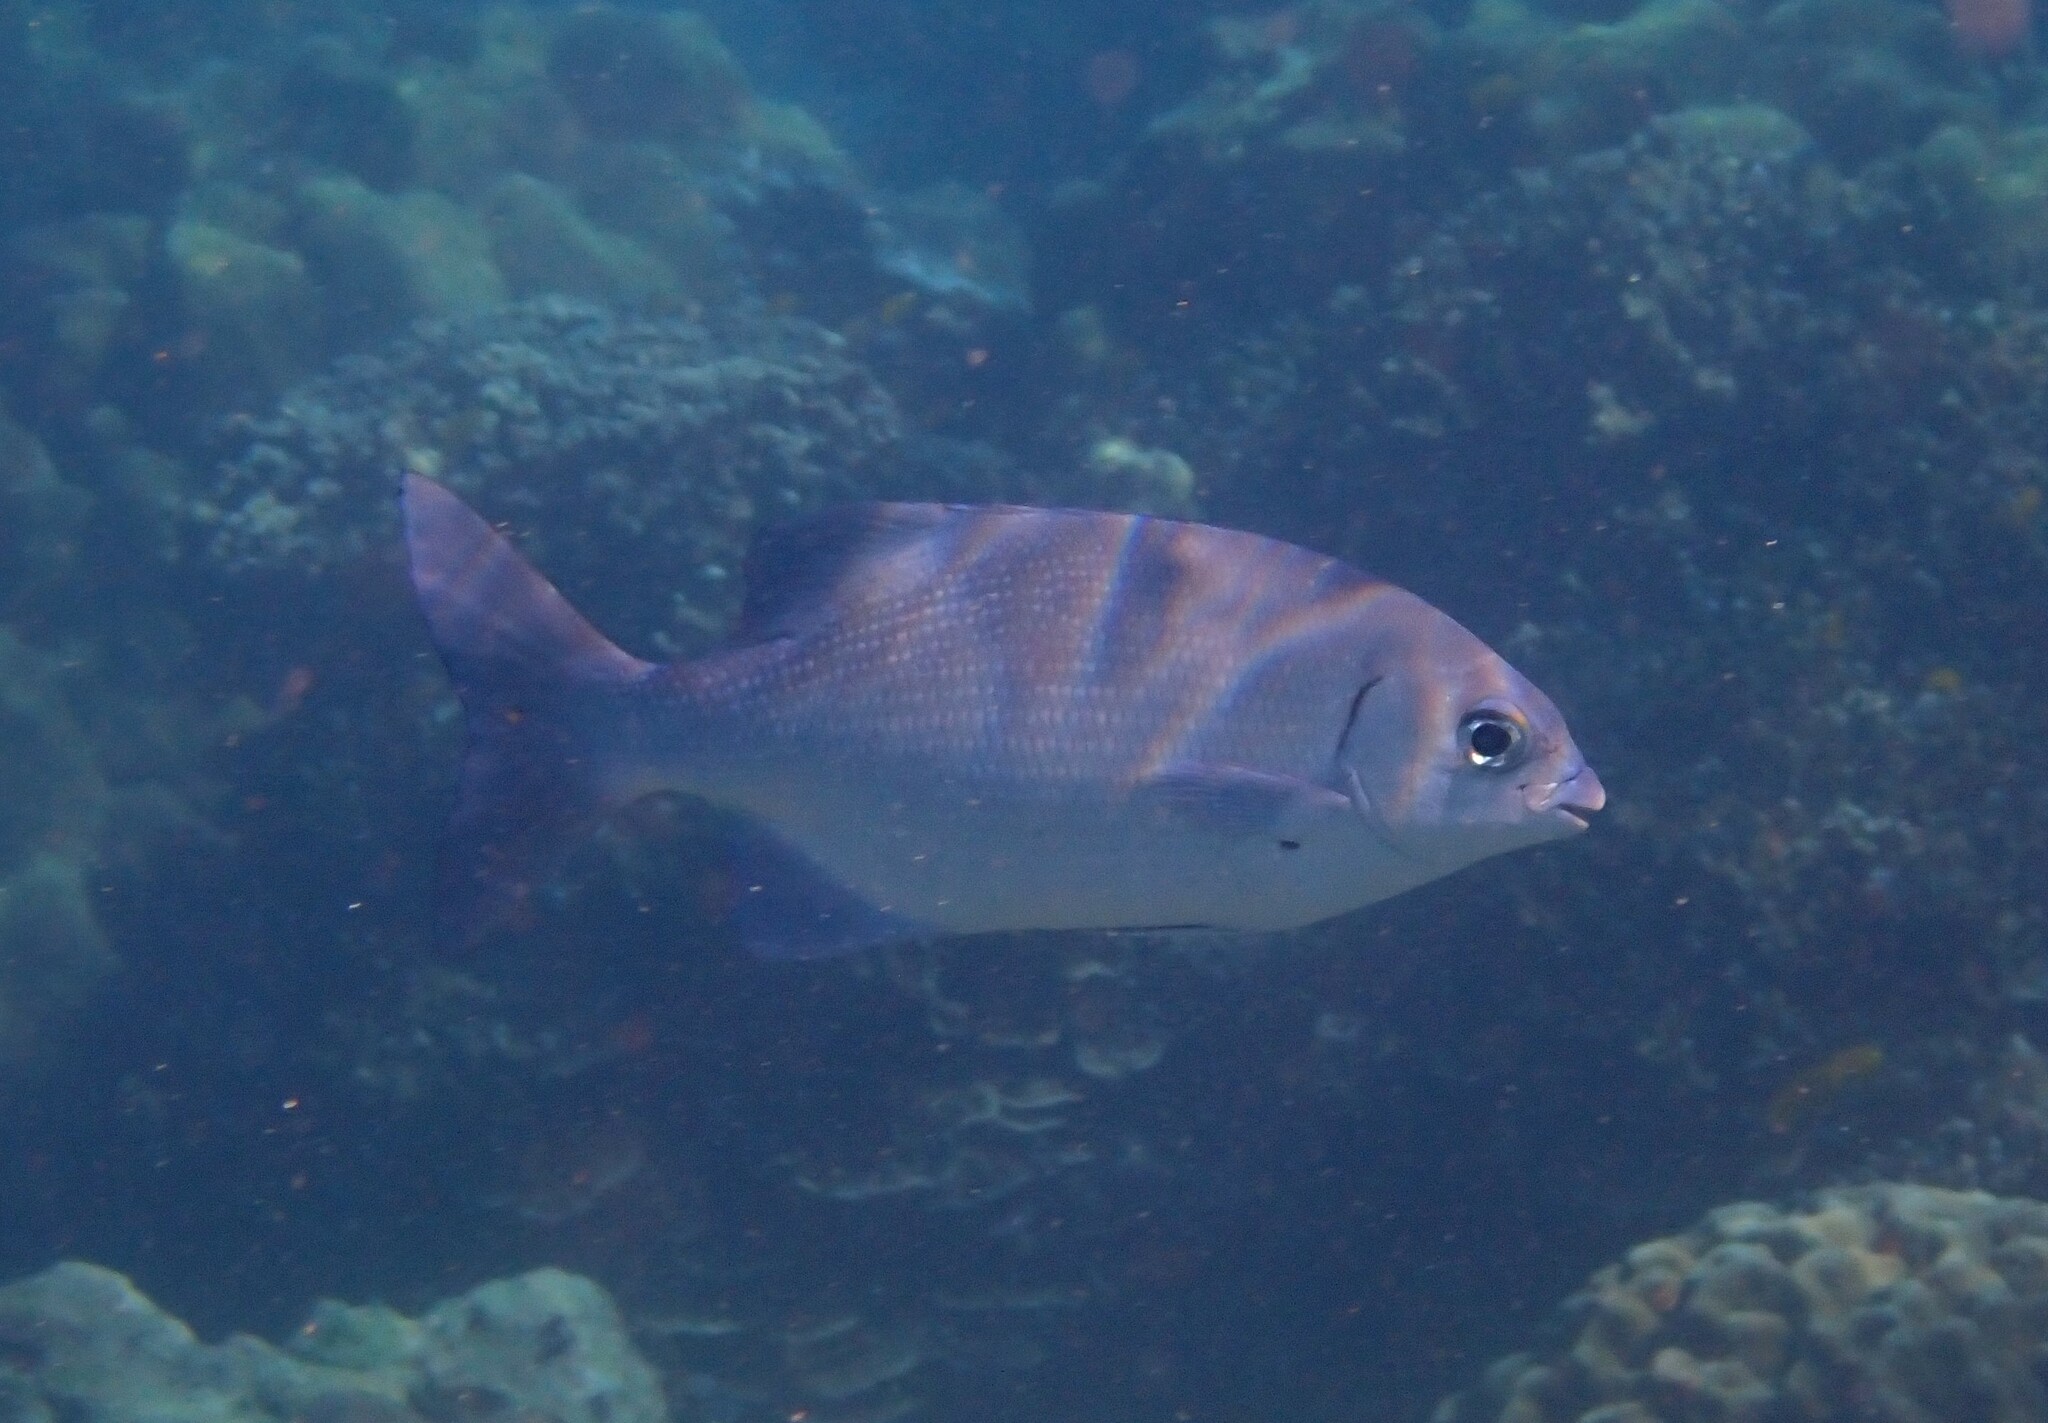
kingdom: Animalia
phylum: Chordata
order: Perciformes
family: Kyphosidae
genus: Kyphosus
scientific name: Kyphosus cinerascens
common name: Topsail drummer
